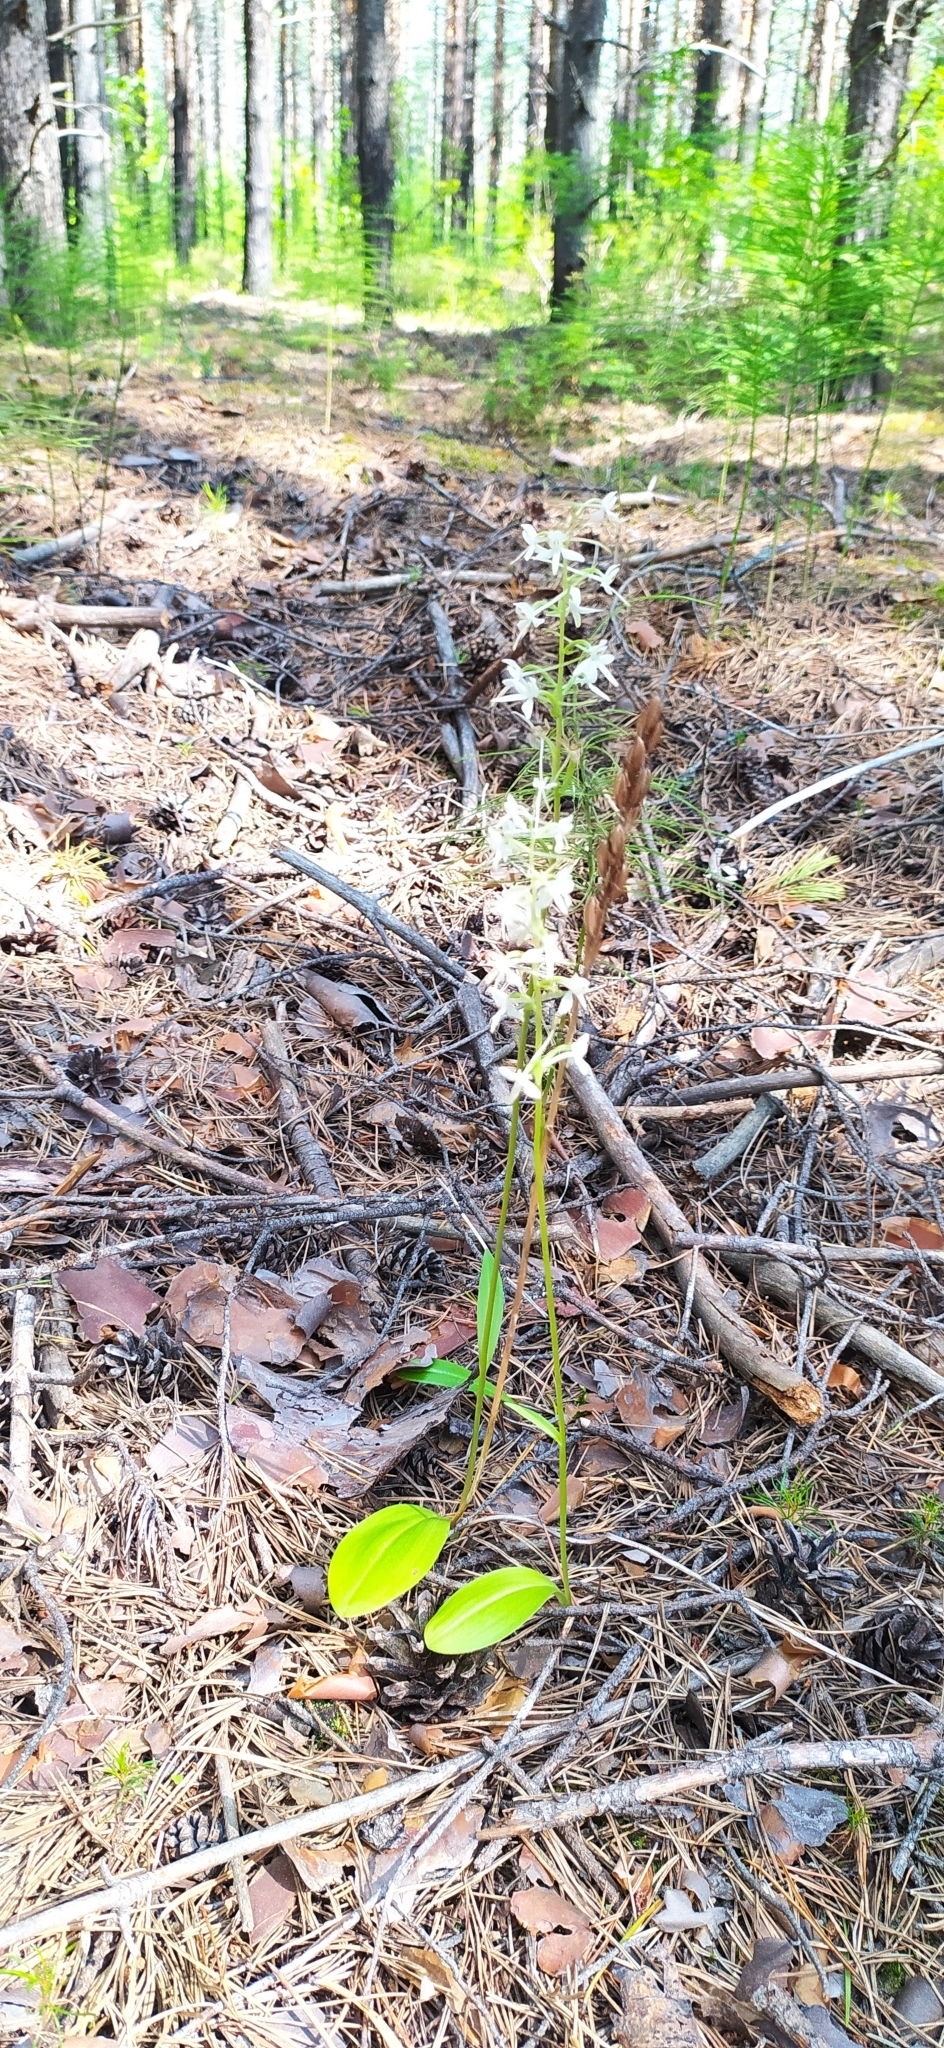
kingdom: Plantae
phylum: Tracheophyta
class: Liliopsida
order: Asparagales
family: Orchidaceae
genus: Platanthera
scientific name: Platanthera bifolia
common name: Lesser butterfly-orchid
